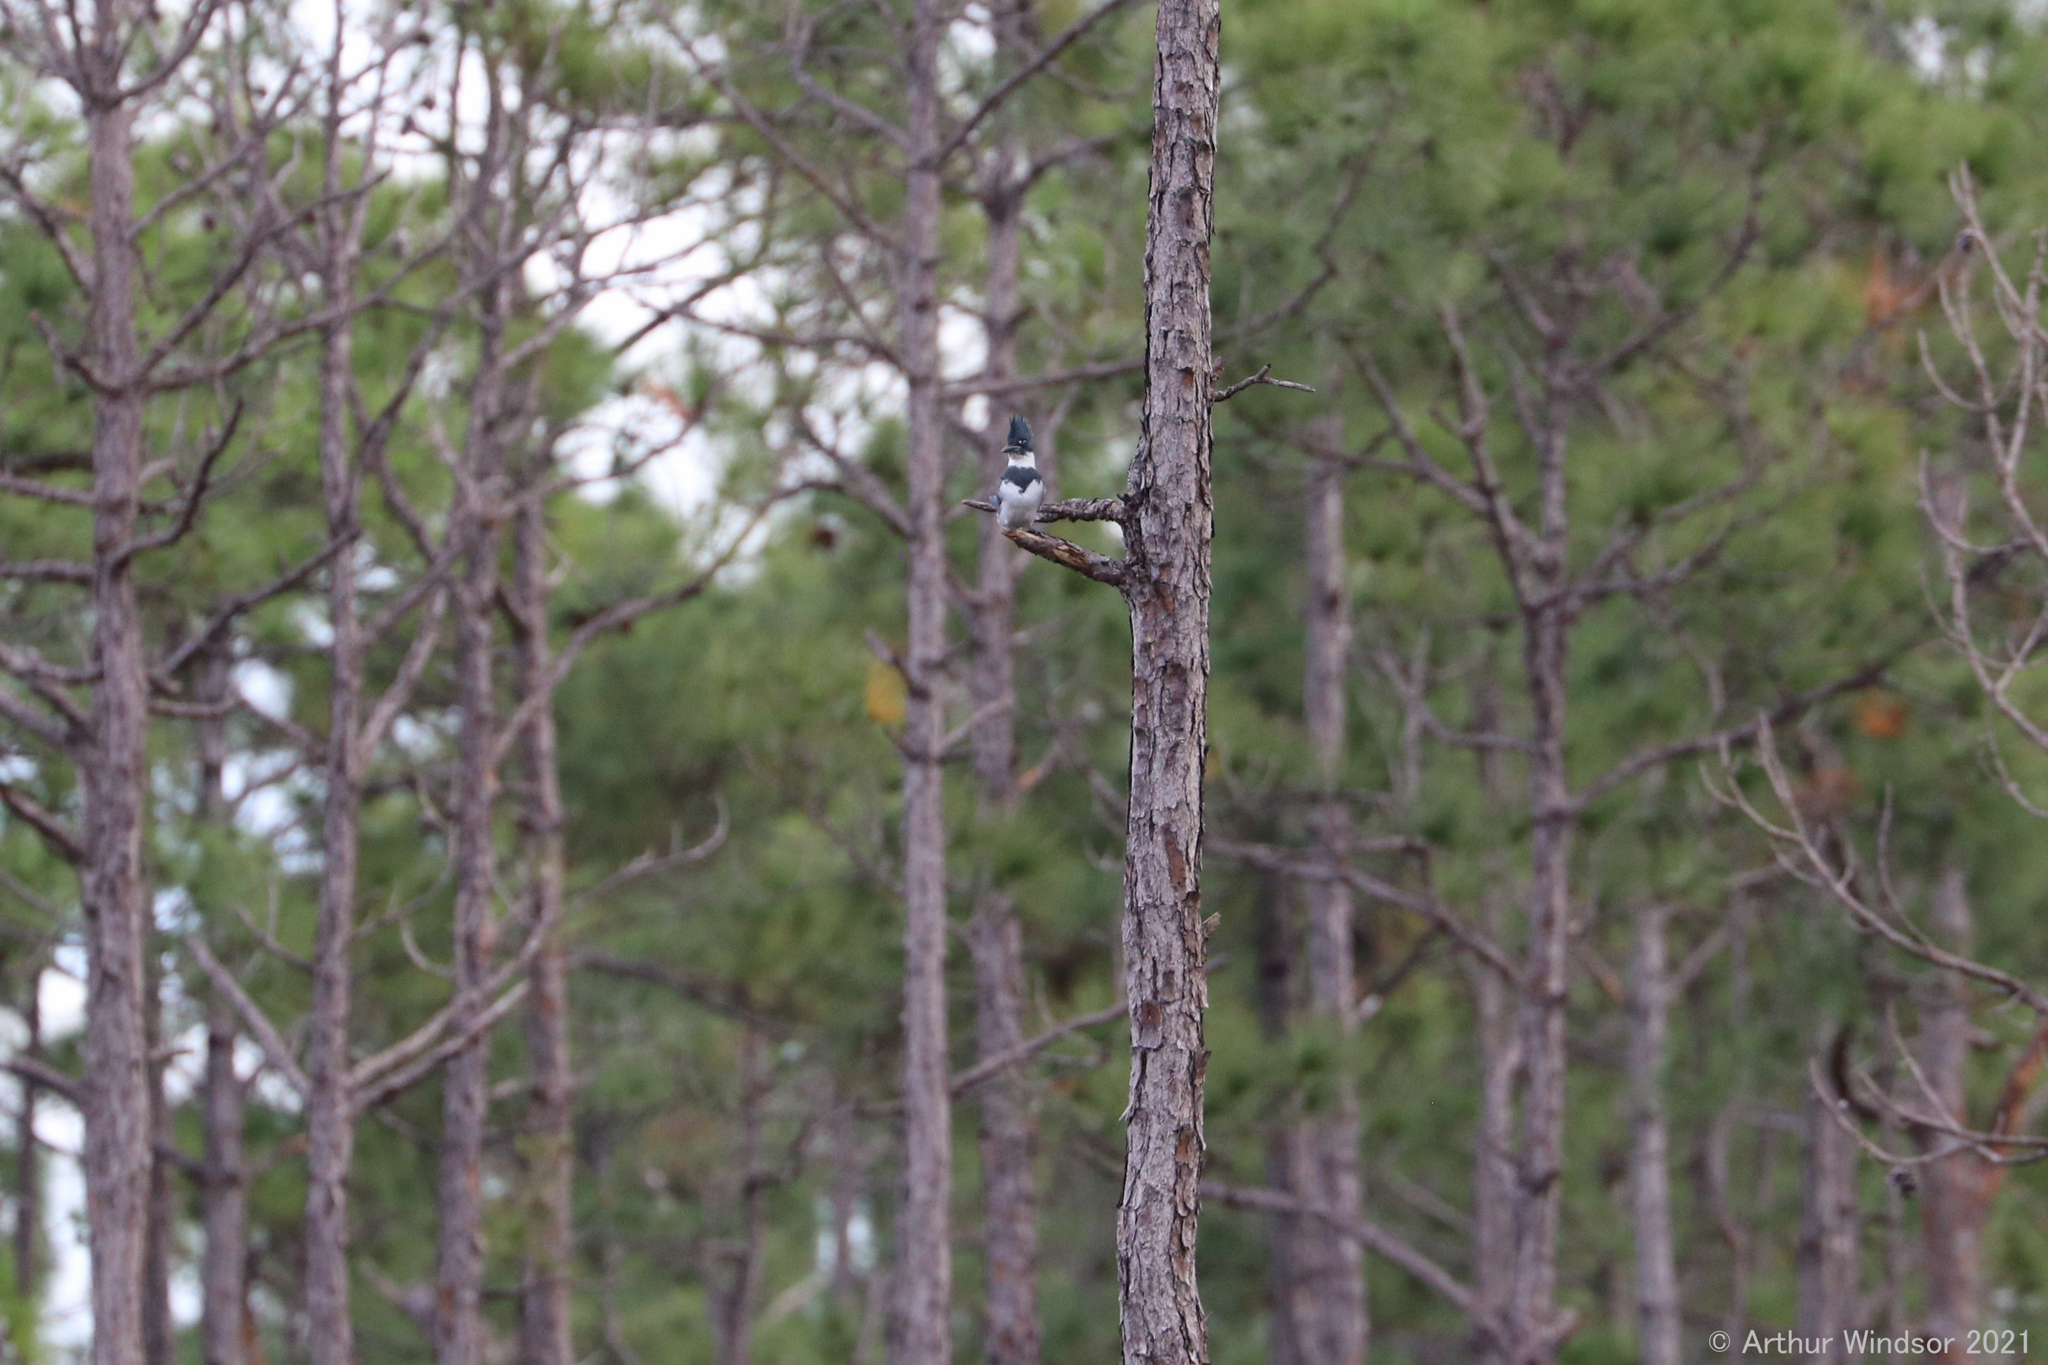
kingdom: Animalia
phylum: Chordata
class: Aves
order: Coraciiformes
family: Alcedinidae
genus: Megaceryle
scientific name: Megaceryle alcyon
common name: Belted kingfisher
